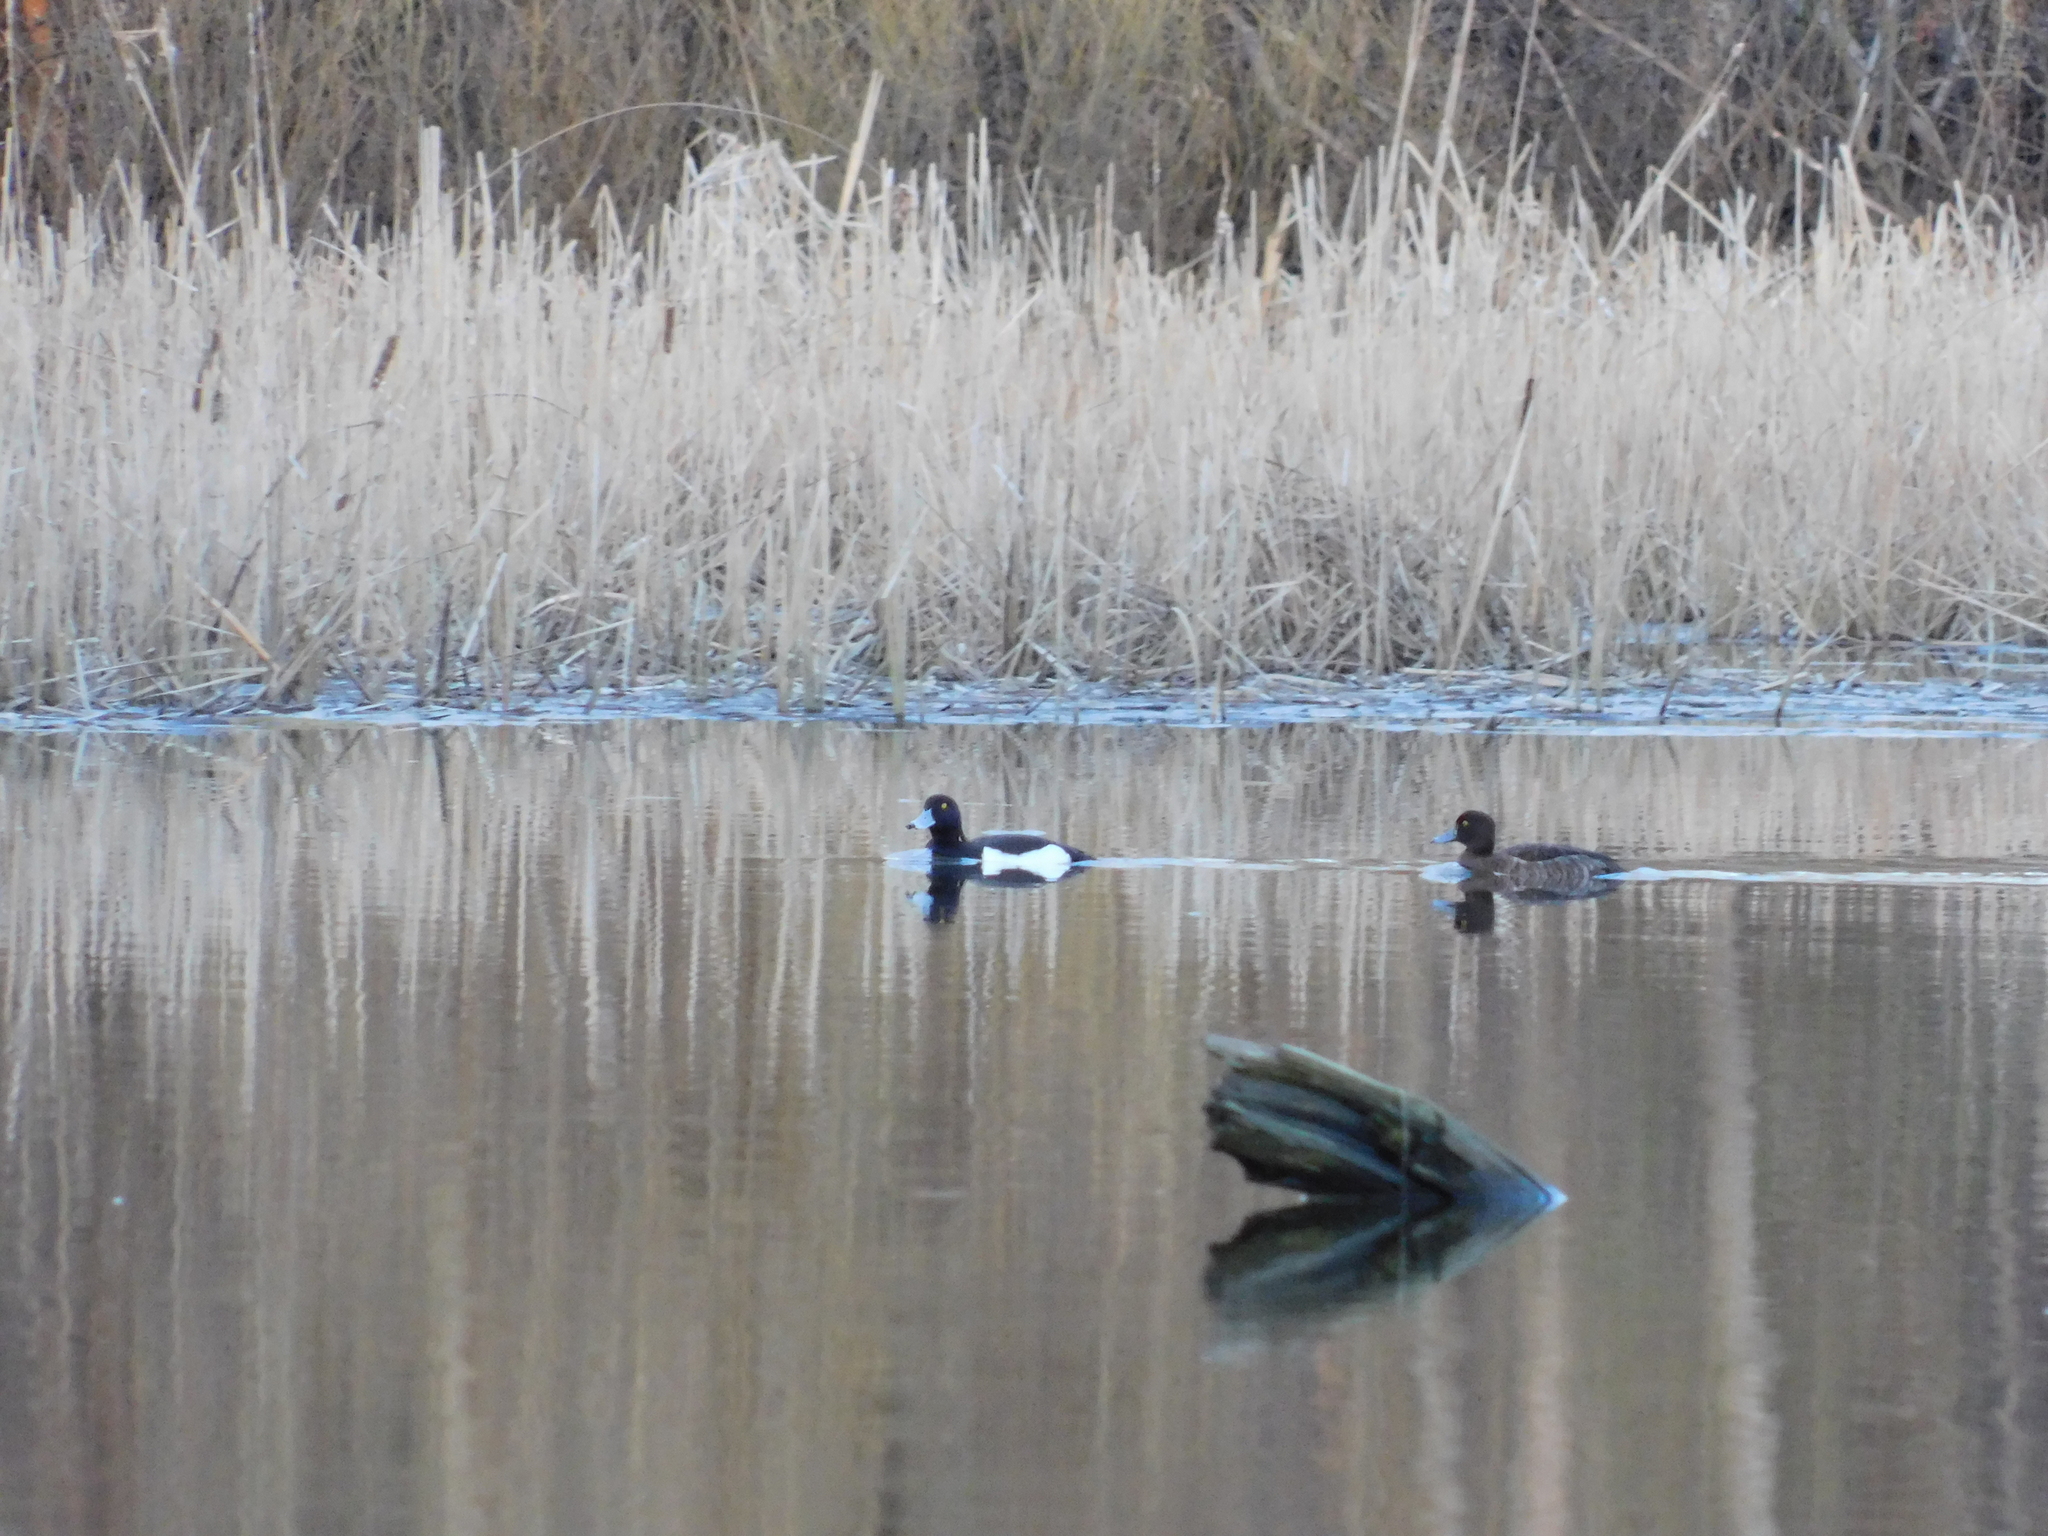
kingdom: Animalia
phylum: Chordata
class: Aves
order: Anseriformes
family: Anatidae
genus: Aythya
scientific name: Aythya fuligula
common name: Tufted duck
